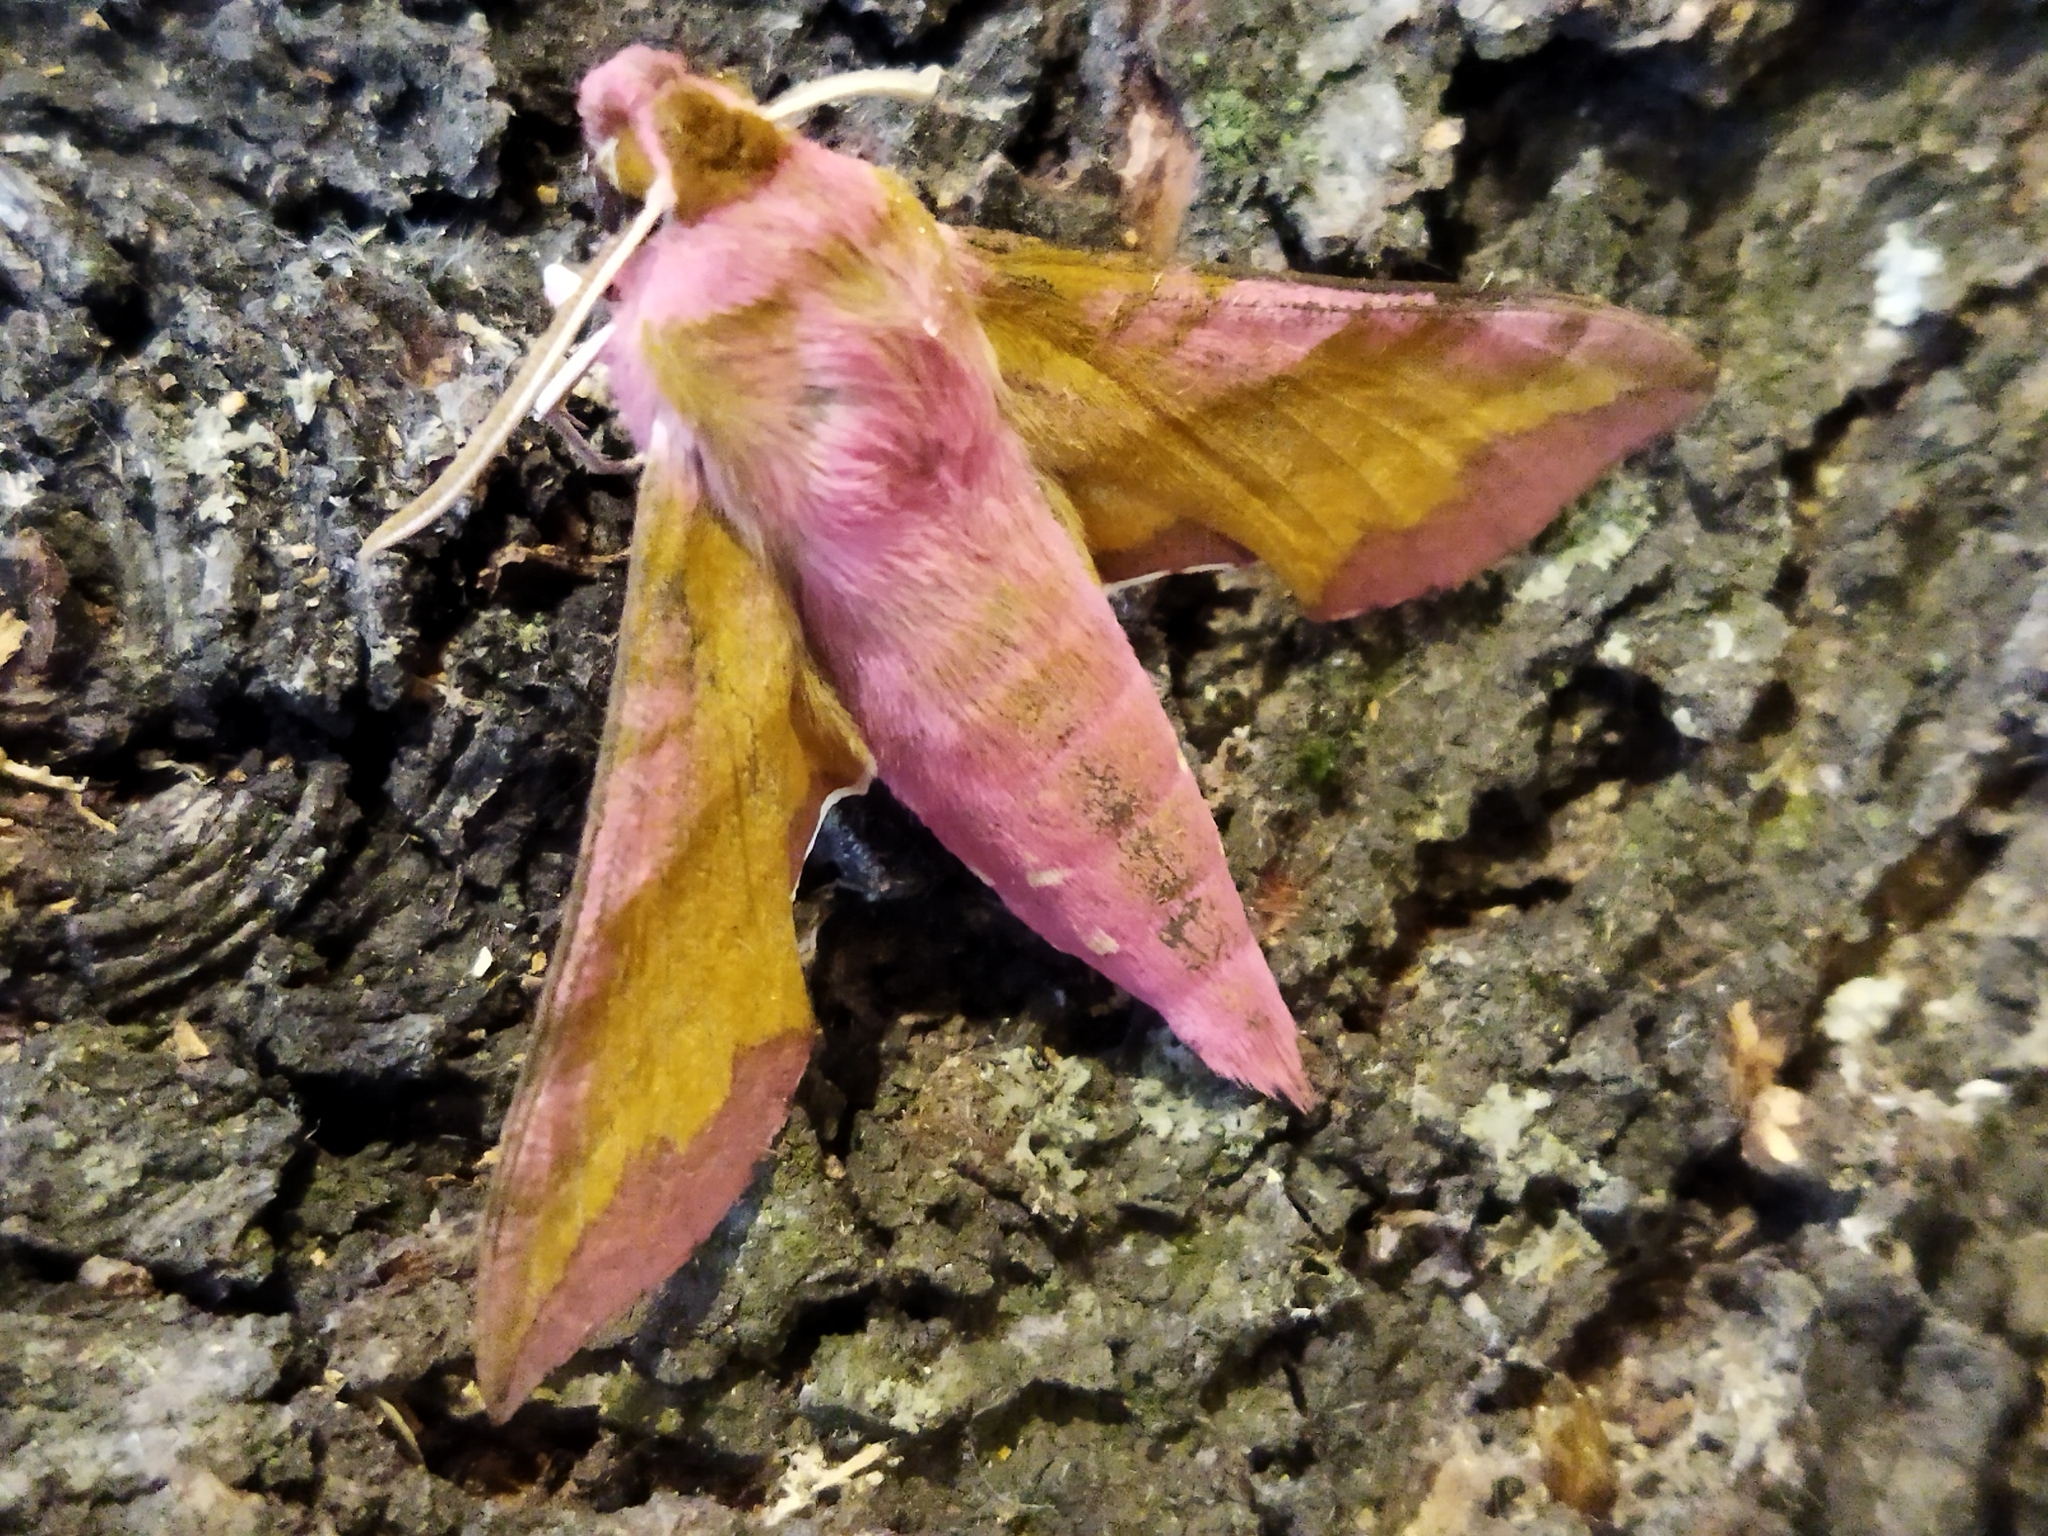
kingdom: Animalia
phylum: Arthropoda
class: Insecta
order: Lepidoptera
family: Sphingidae
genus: Deilephila
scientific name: Deilephila porcellus
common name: Small elephant hawk-moth
